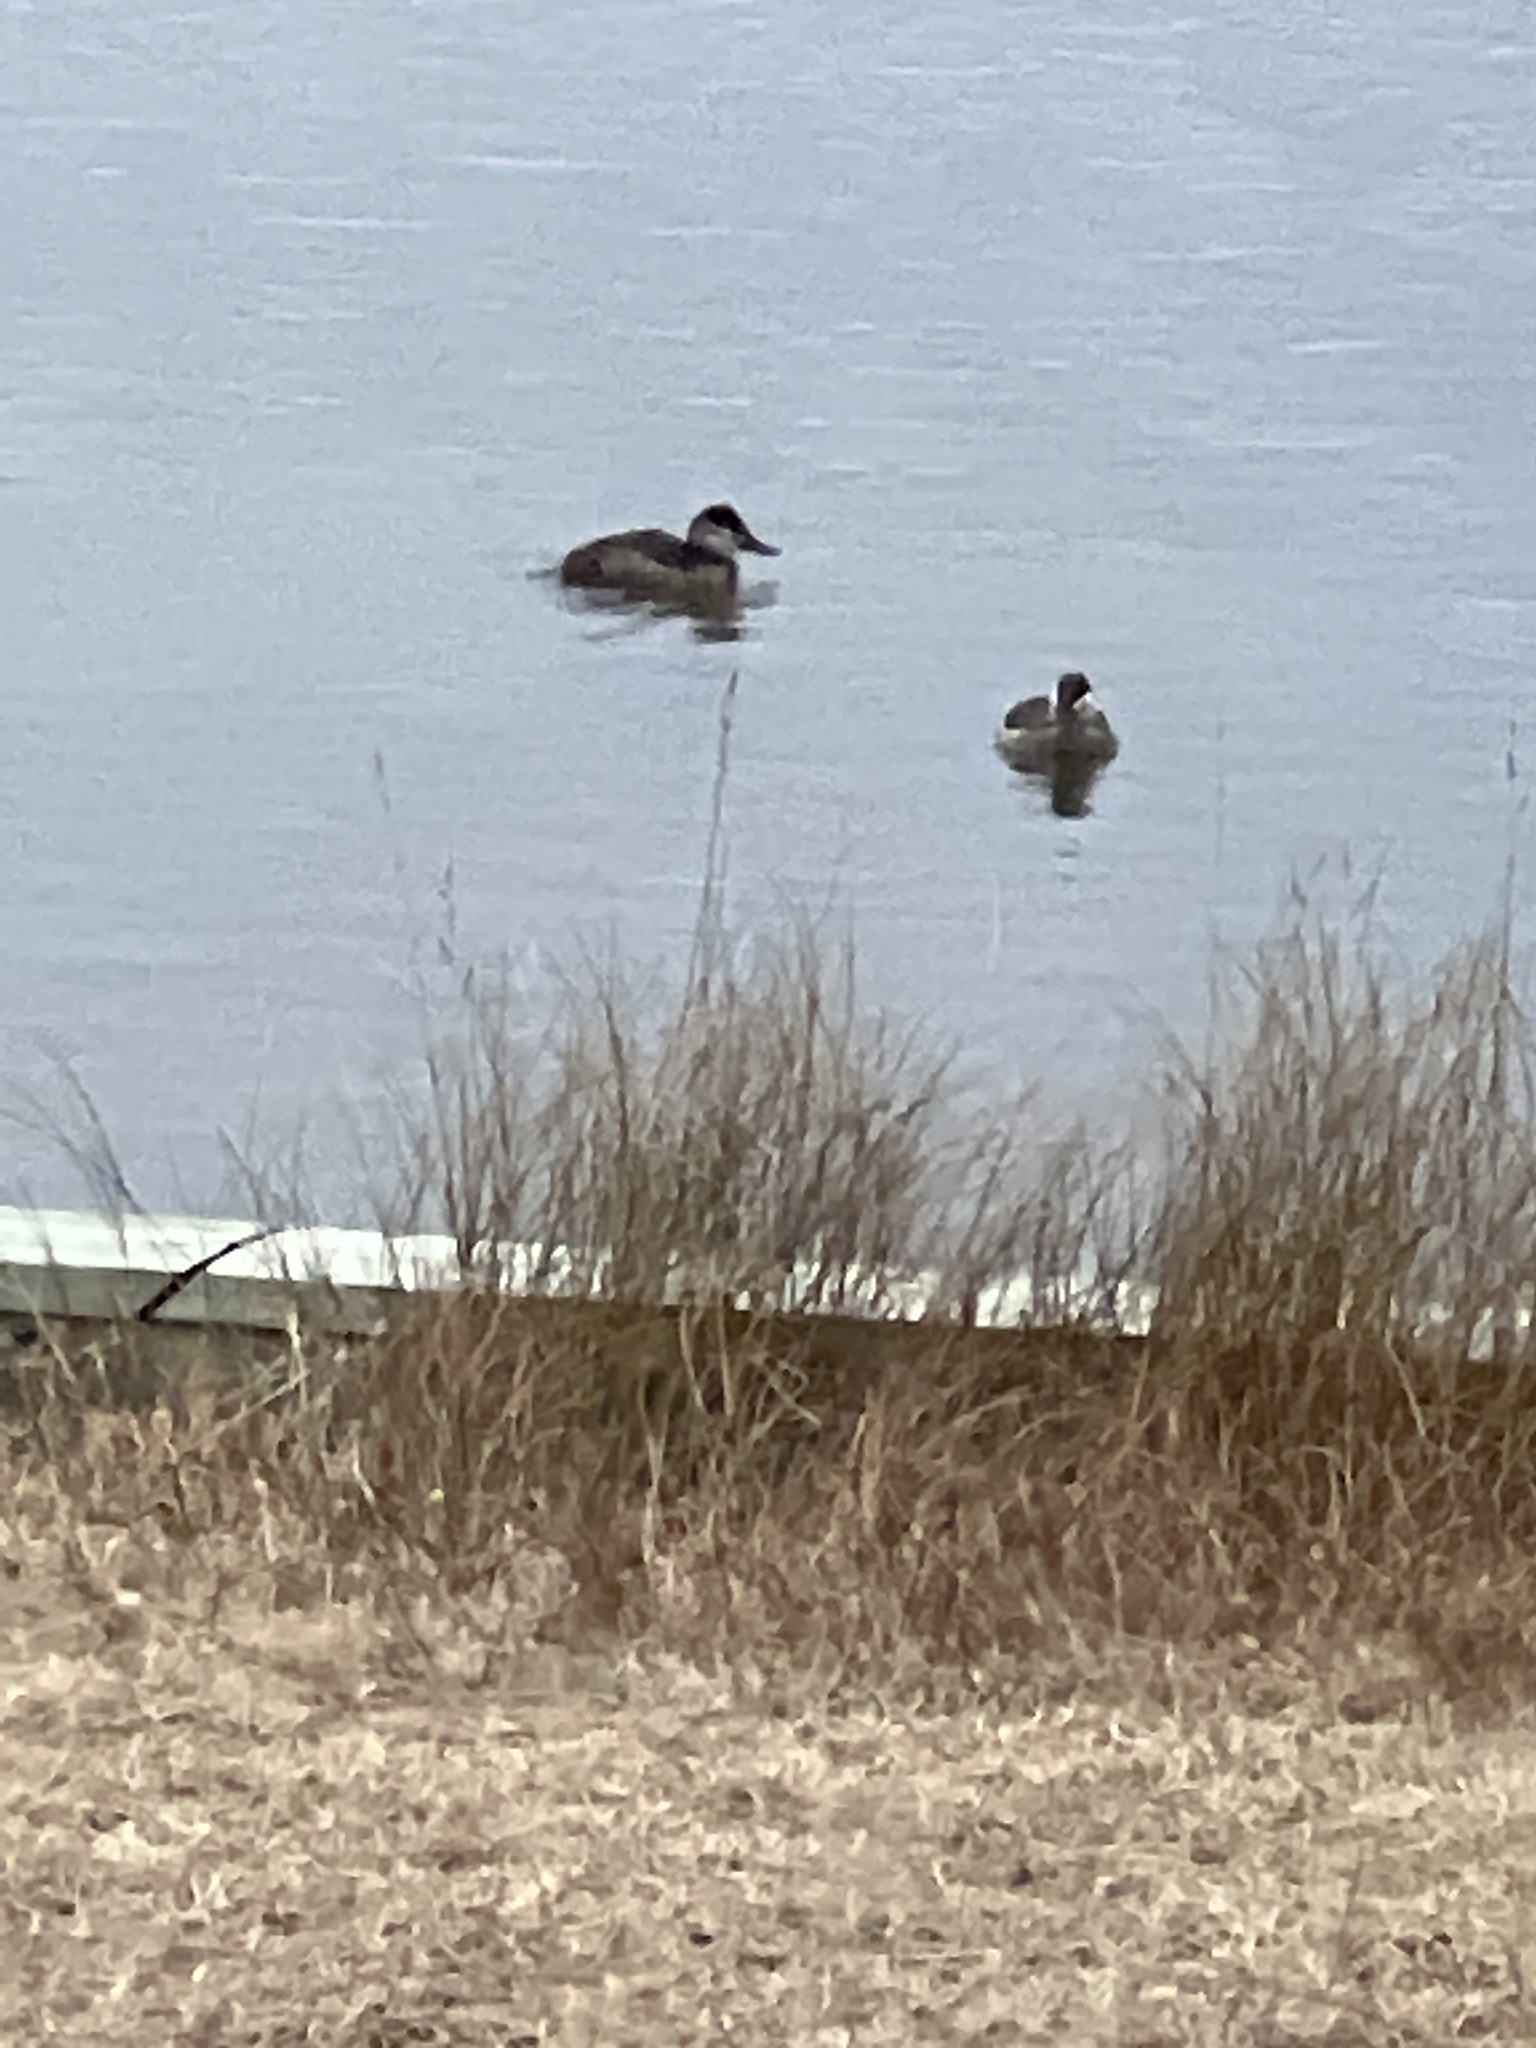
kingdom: Animalia
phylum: Chordata
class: Aves
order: Anseriformes
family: Anatidae
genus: Oxyura
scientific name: Oxyura jamaicensis
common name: Ruddy duck
